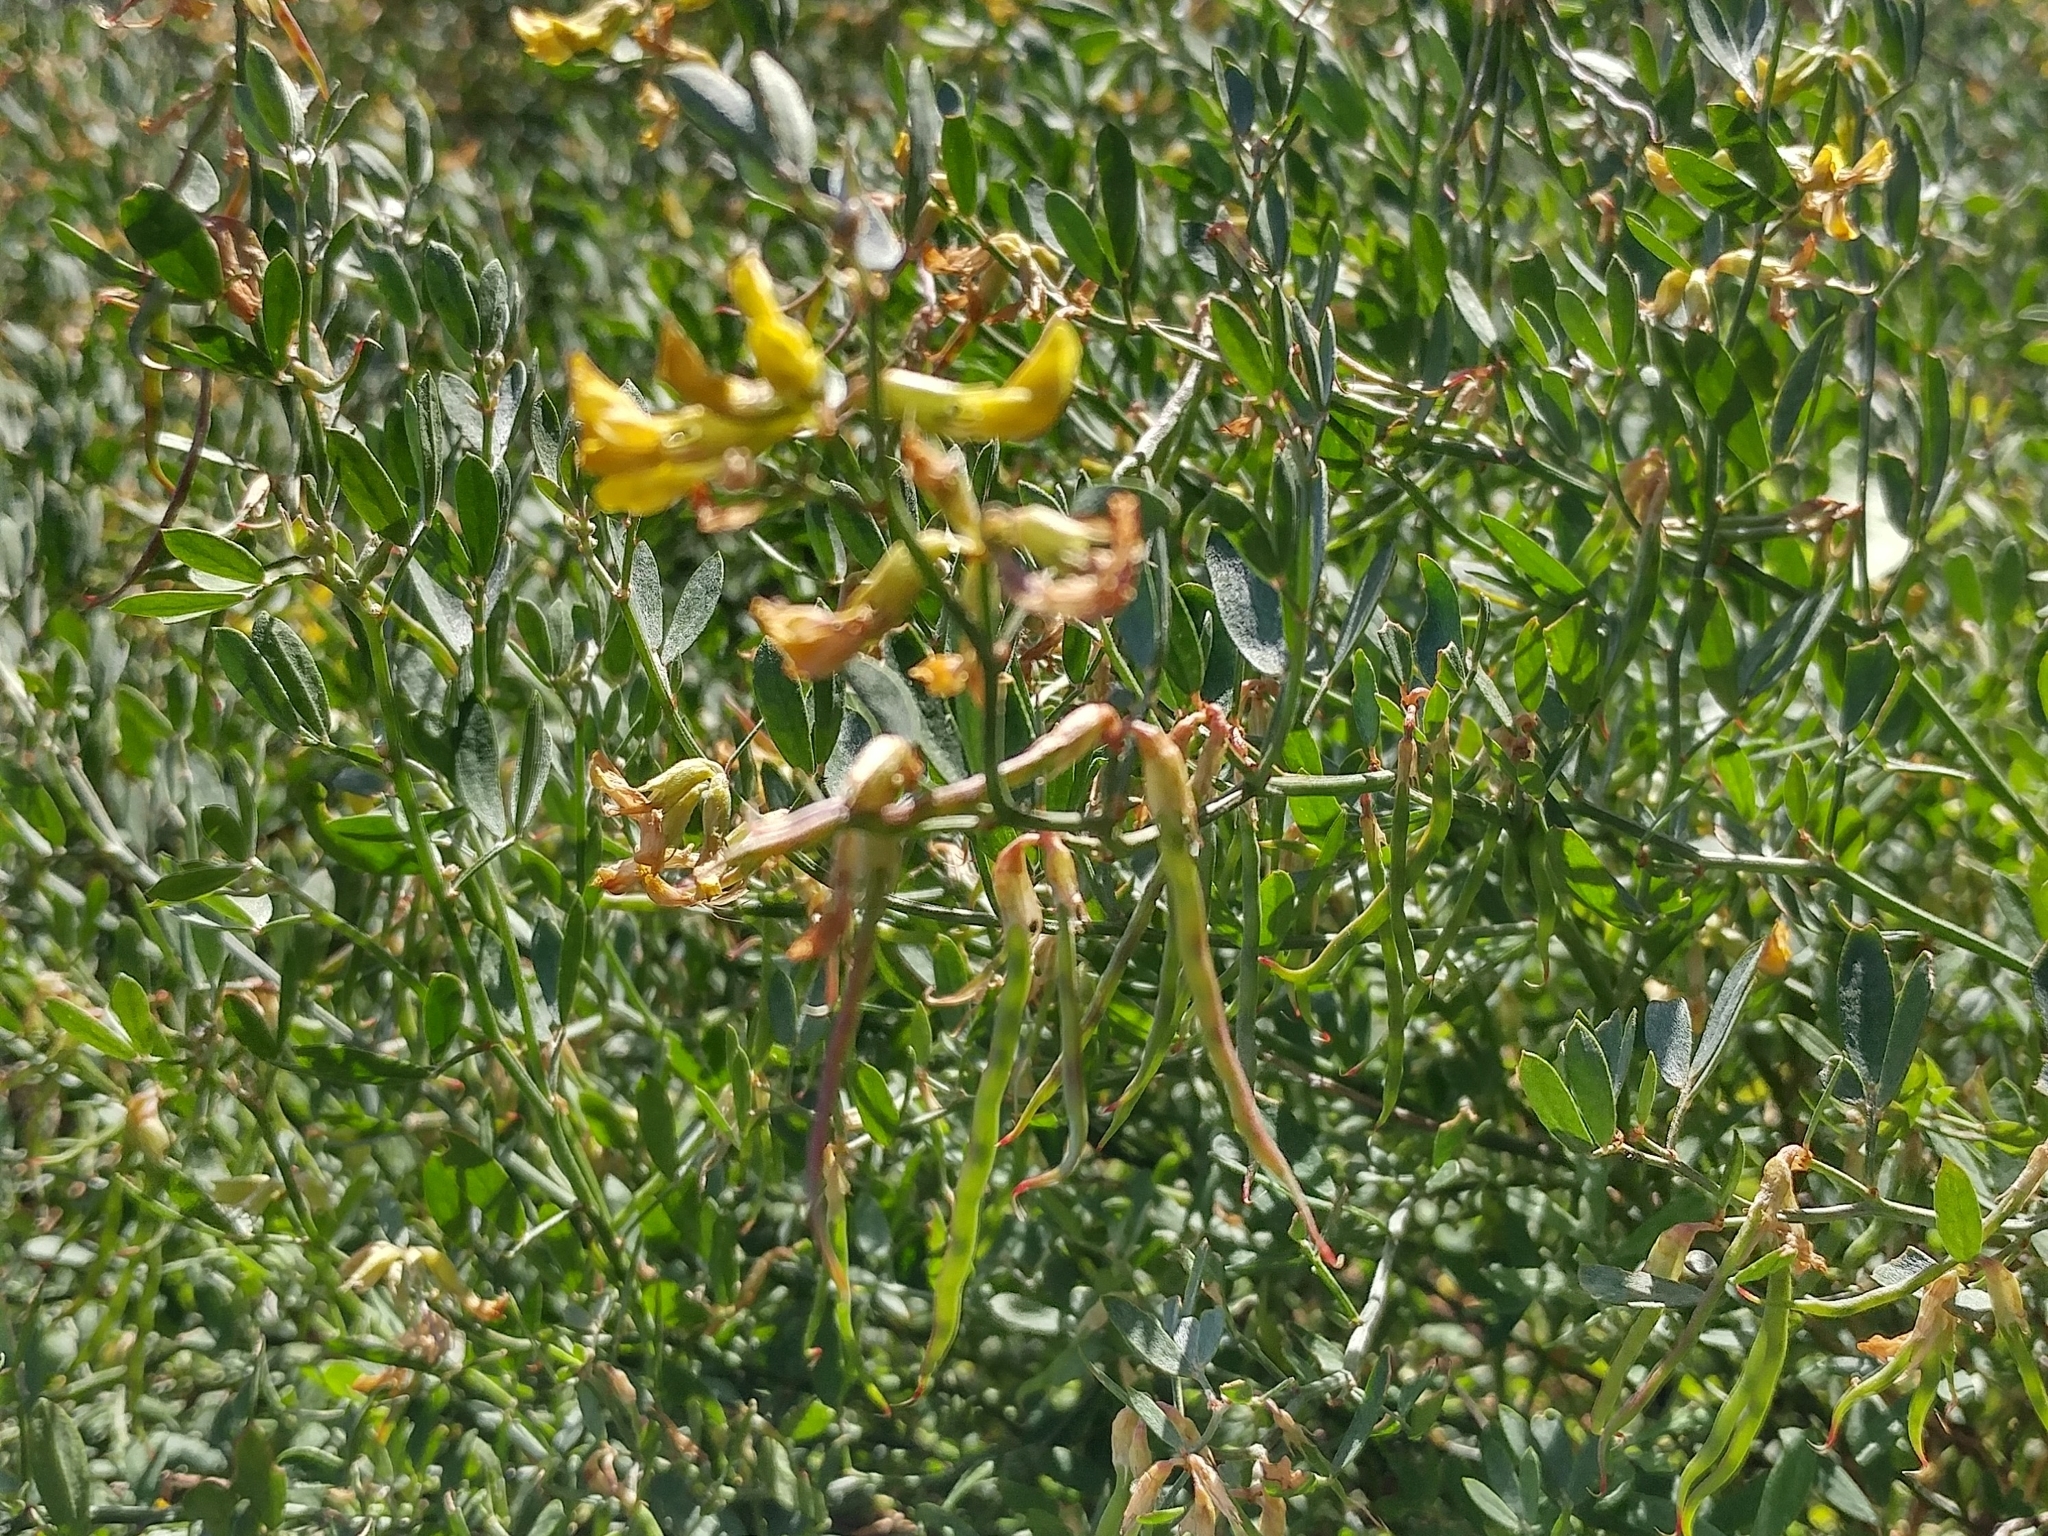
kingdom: Plantae
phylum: Tracheophyta
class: Magnoliopsida
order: Fabales
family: Fabaceae
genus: Acmispon
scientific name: Acmispon dendroideus
